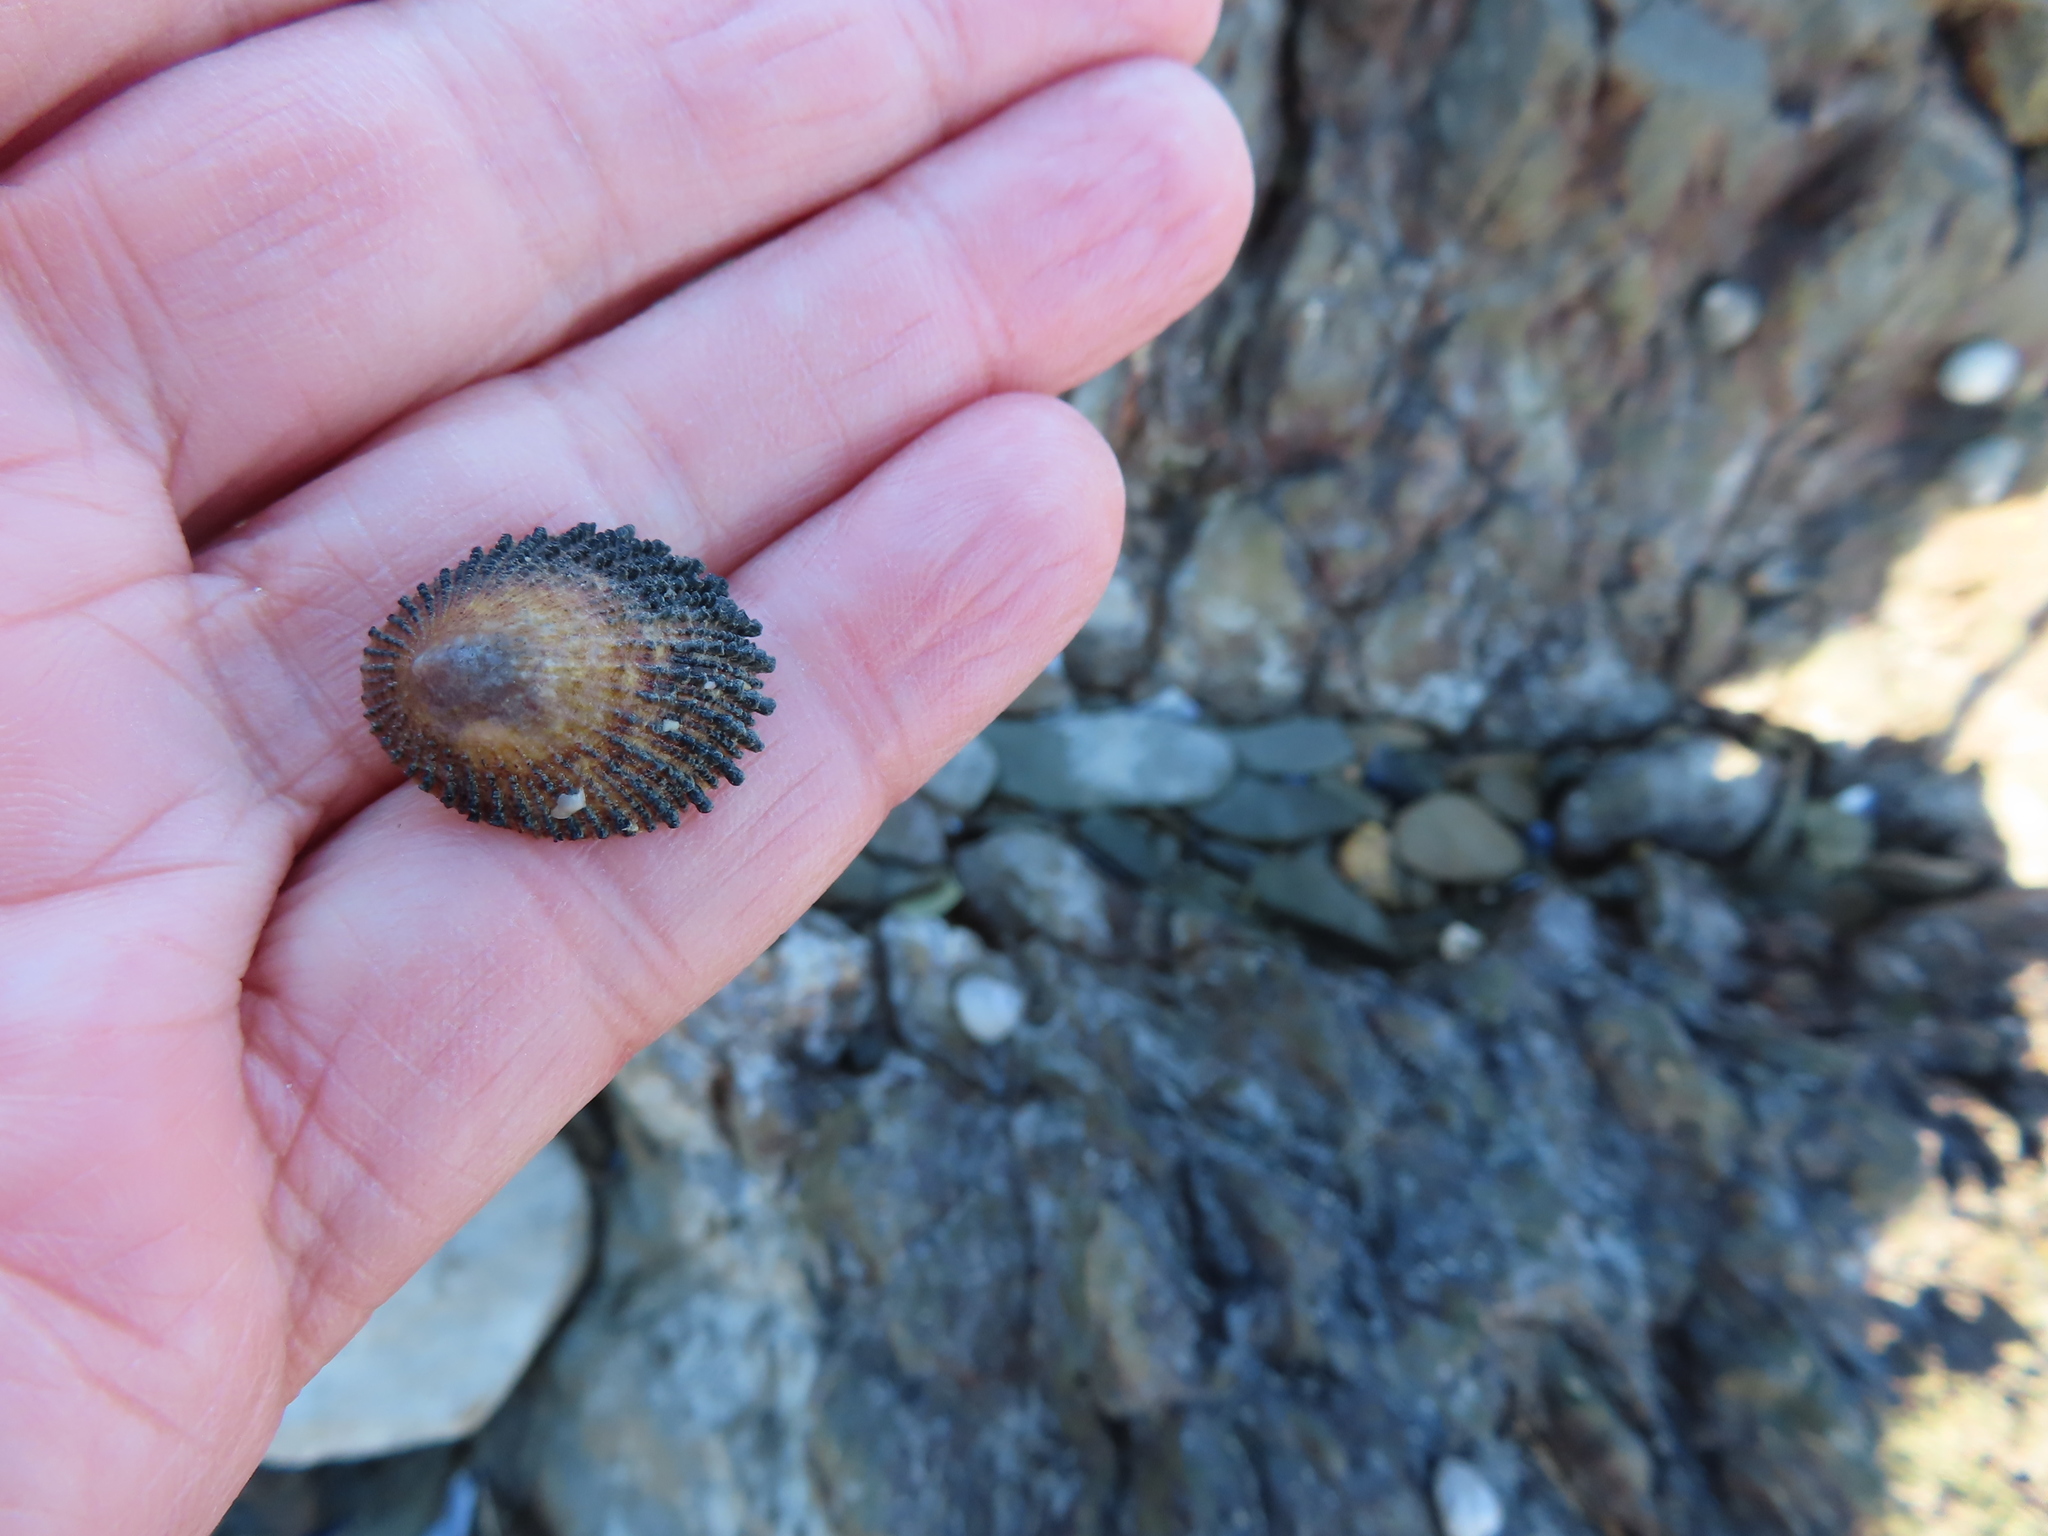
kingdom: Animalia
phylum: Mollusca
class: Gastropoda
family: Patellidae
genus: Helcion
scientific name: Helcion pectunculus
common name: Prickly limpet
